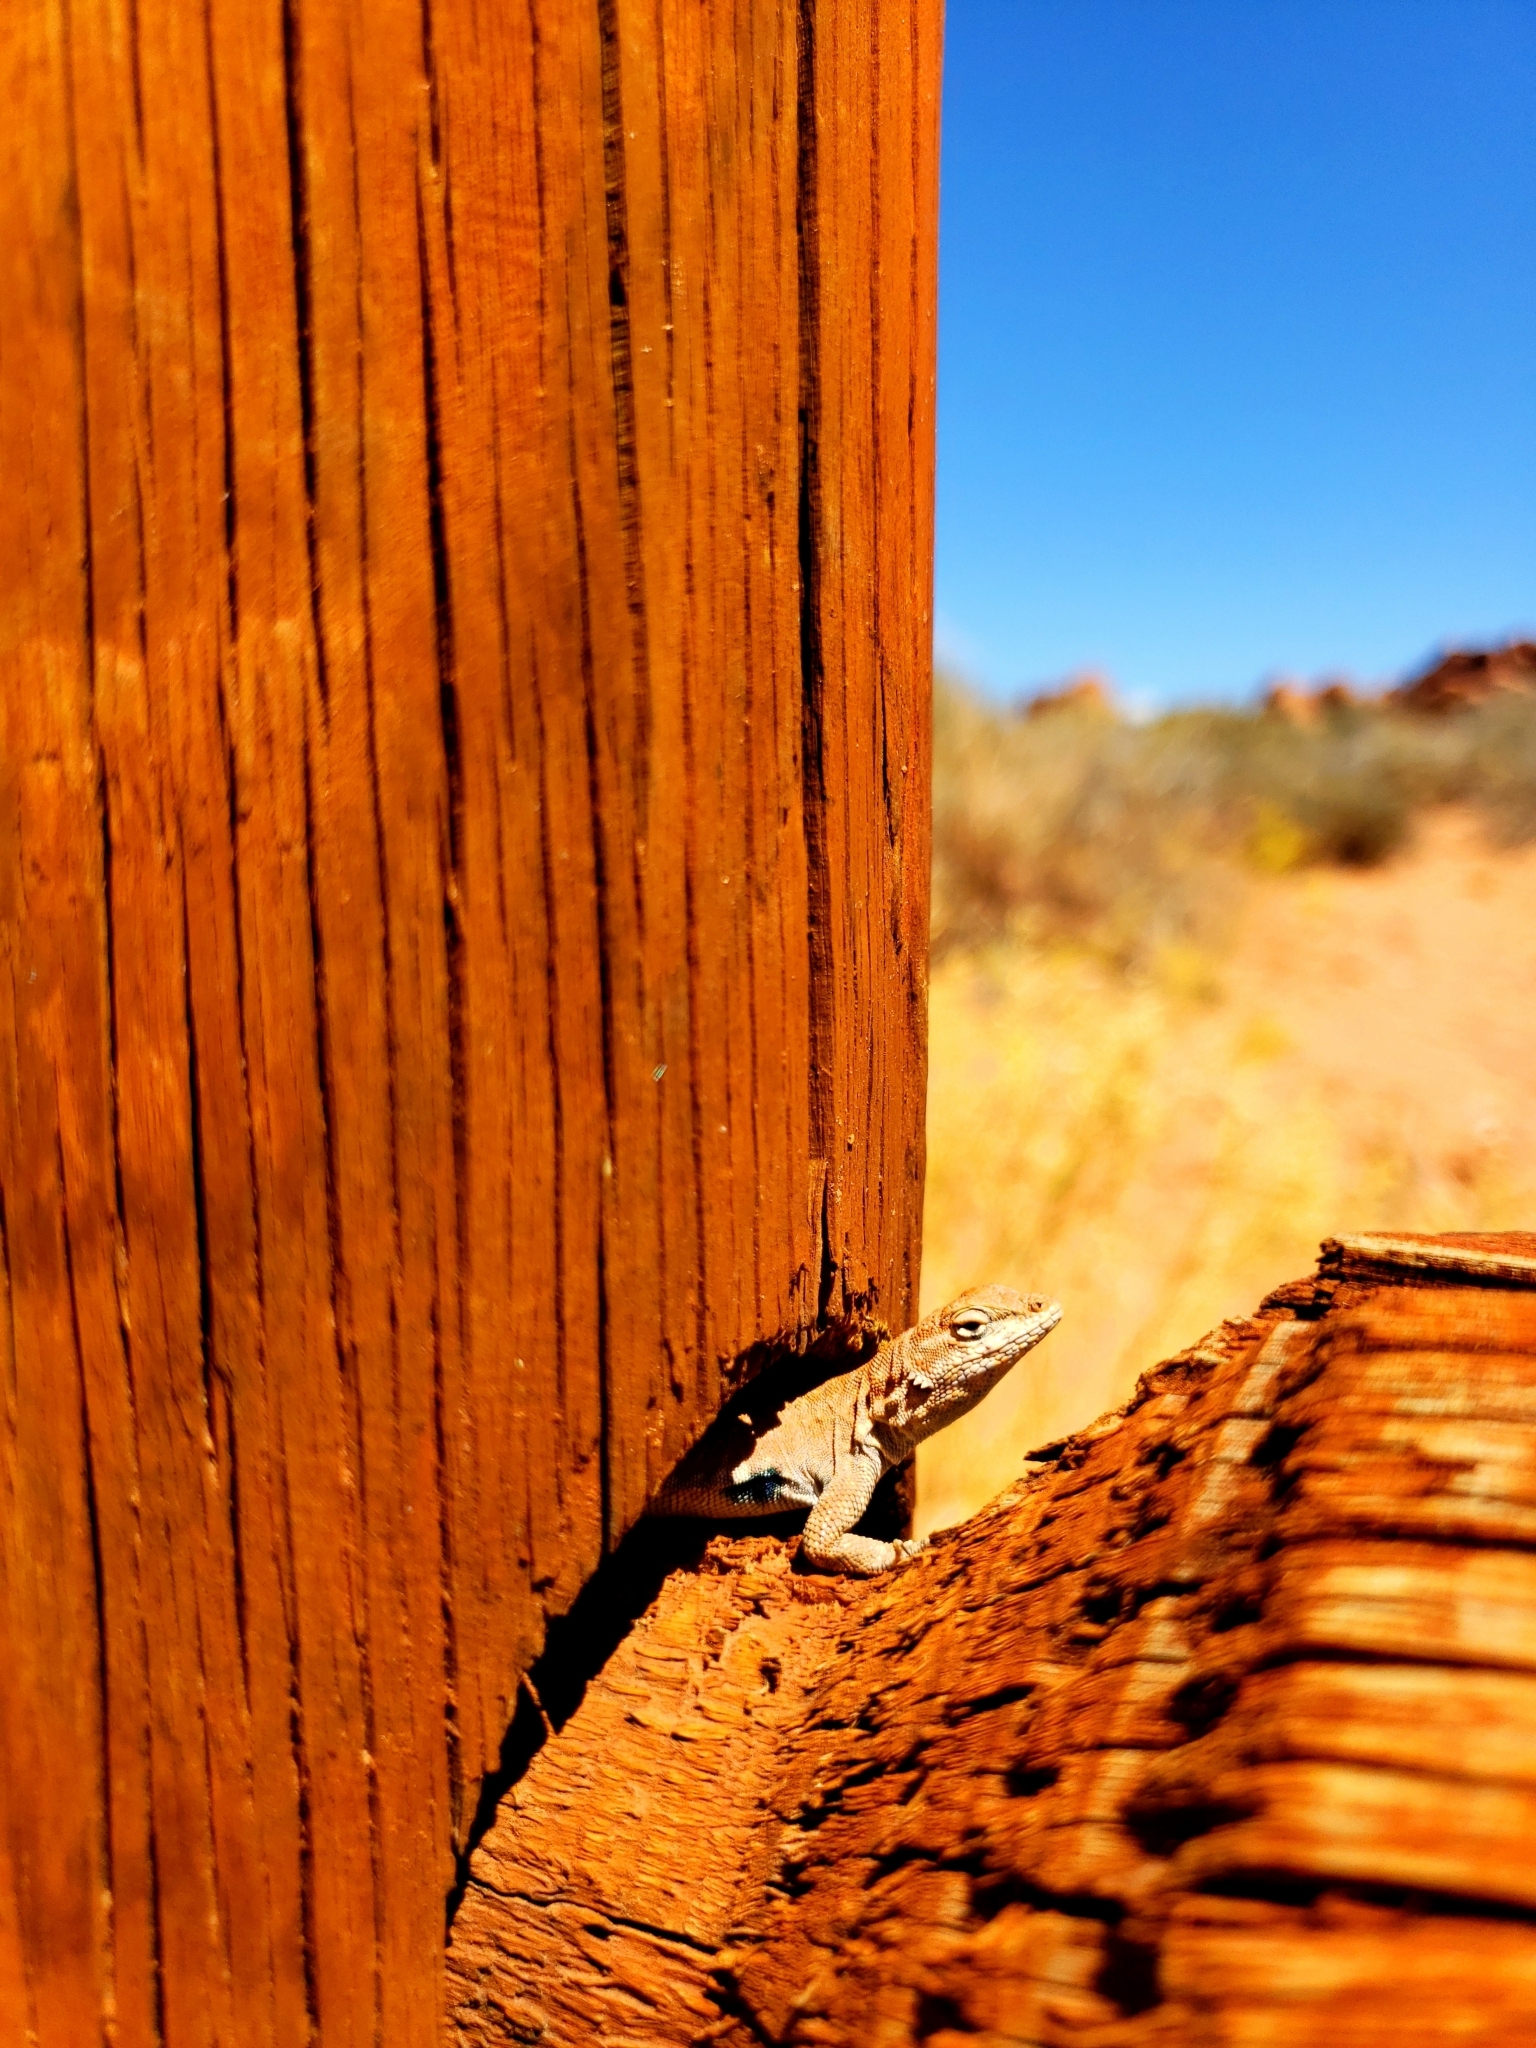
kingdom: Animalia
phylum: Chordata
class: Squamata
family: Phrynosomatidae
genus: Uta
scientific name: Uta stansburiana
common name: Side-blotched lizard
